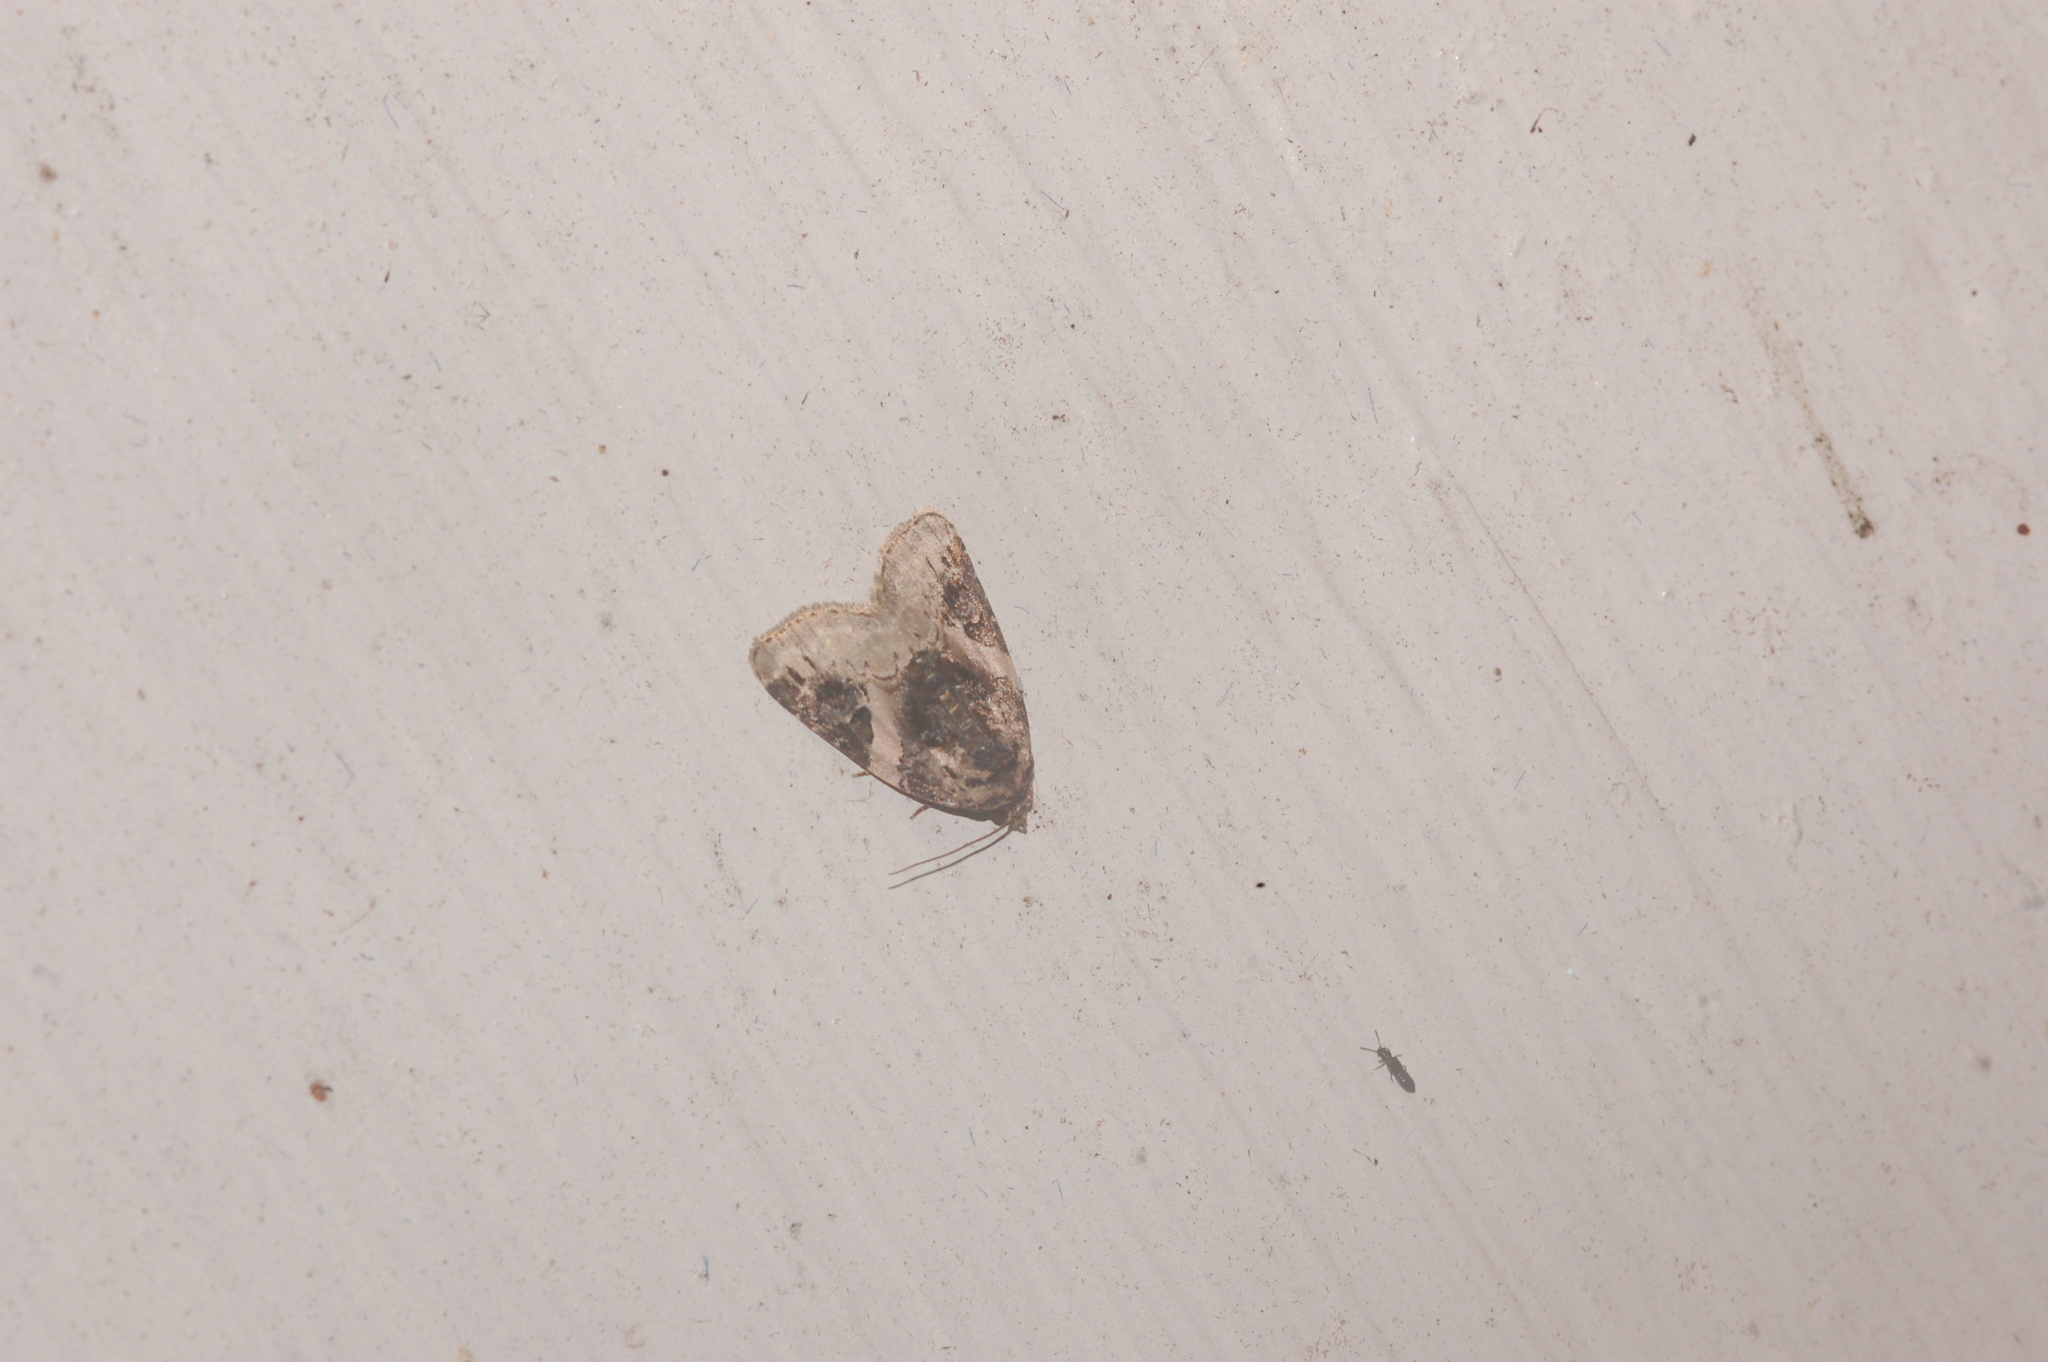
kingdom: Animalia
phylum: Arthropoda
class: Insecta
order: Lepidoptera
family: Noctuidae
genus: Pseudeustrotia
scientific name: Pseudeustrotia carneola
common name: Pink-barred lithacodia moth
